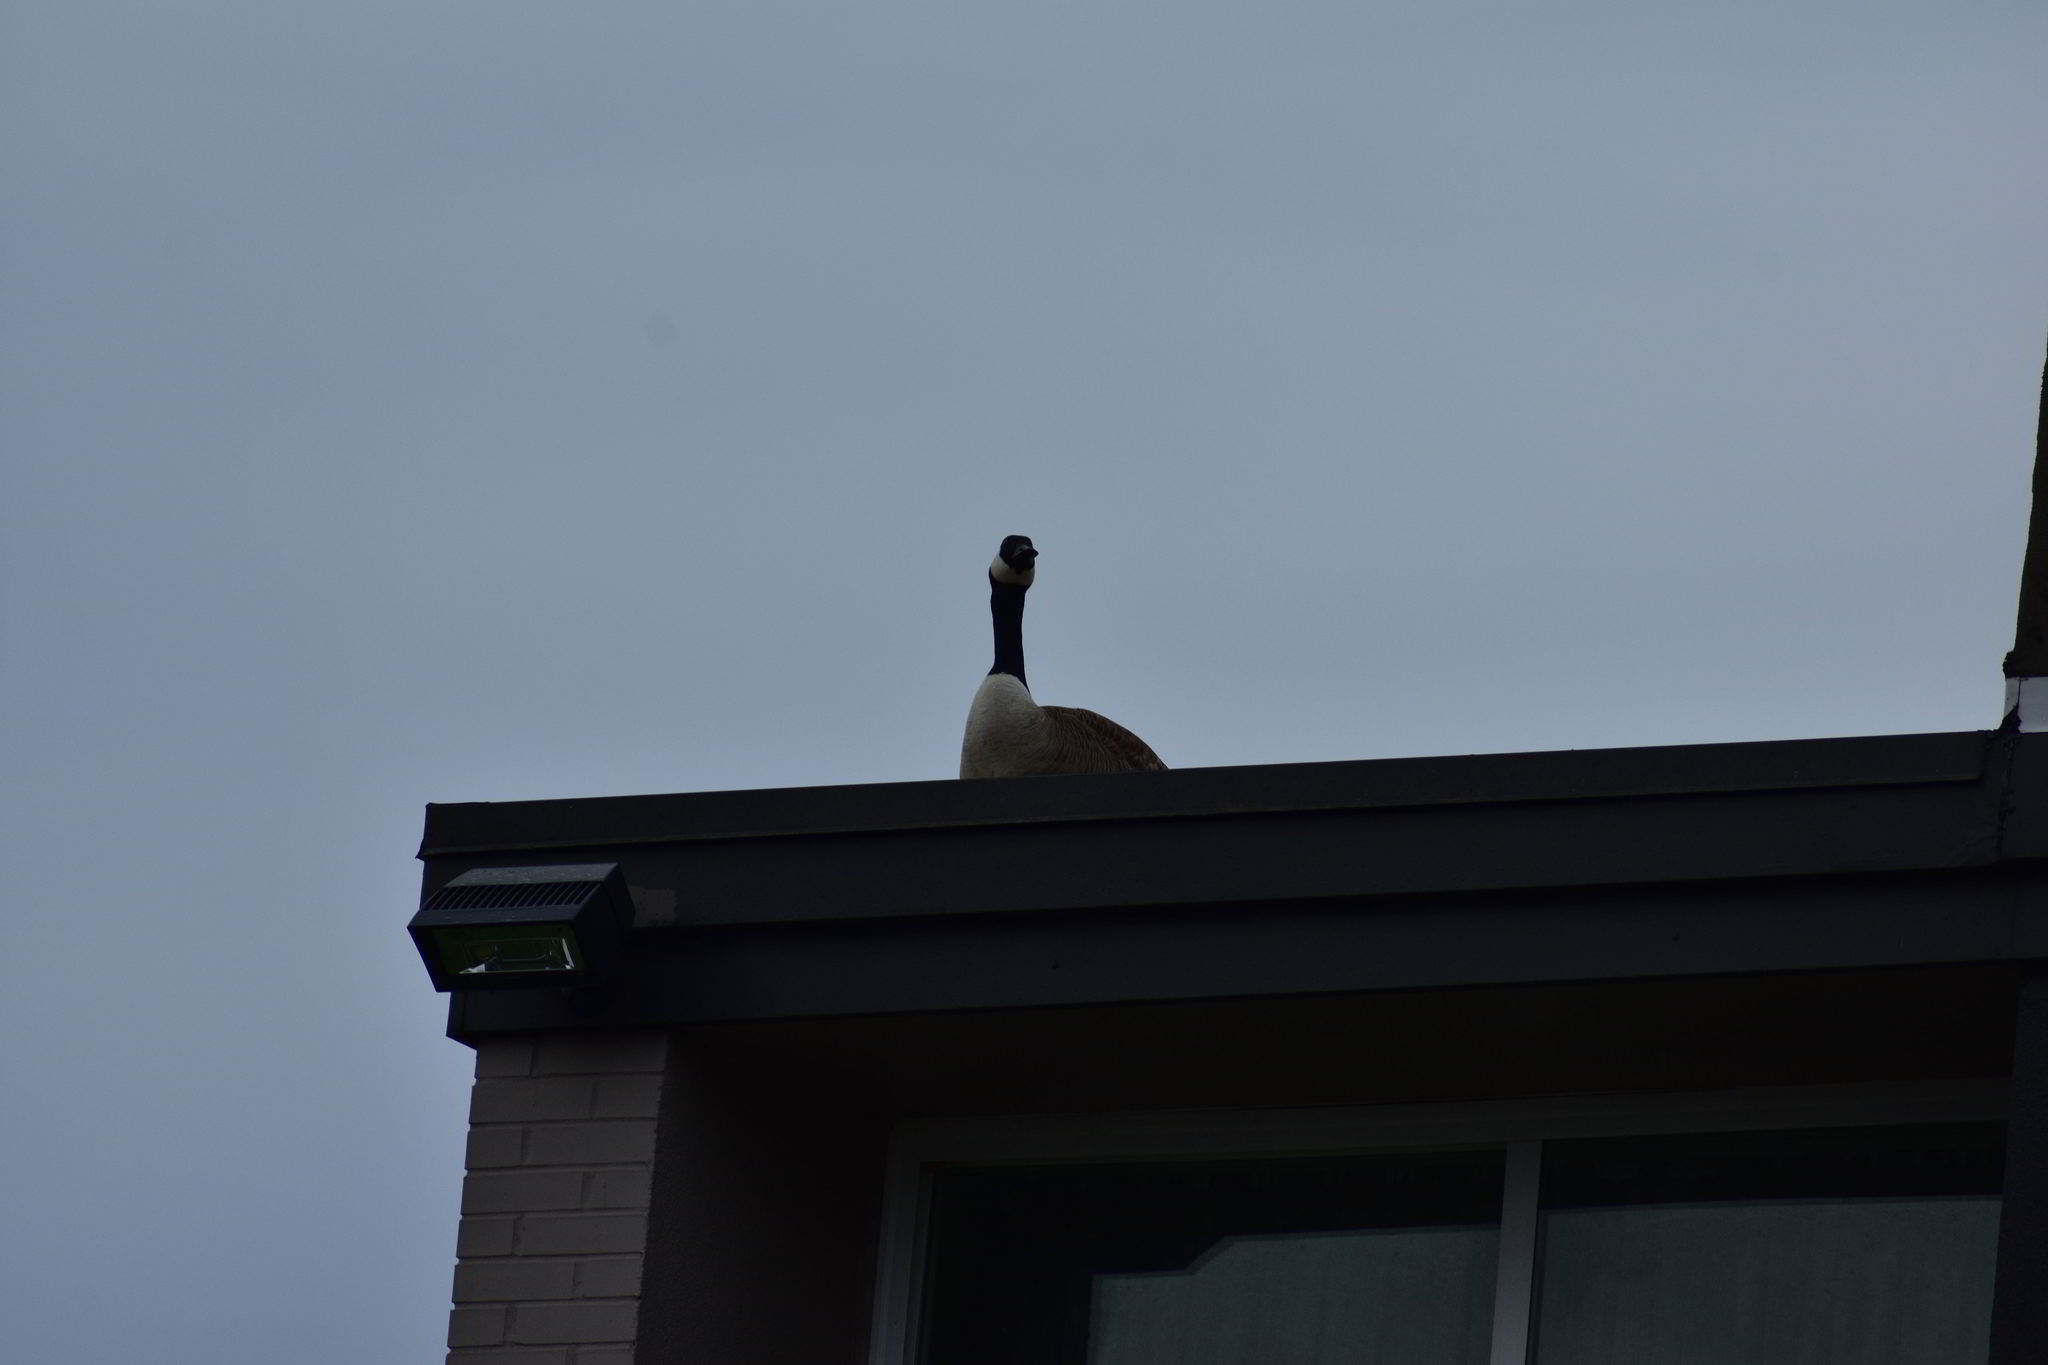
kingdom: Animalia
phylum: Chordata
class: Aves
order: Anseriformes
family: Anatidae
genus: Branta
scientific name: Branta canadensis
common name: Canada goose
